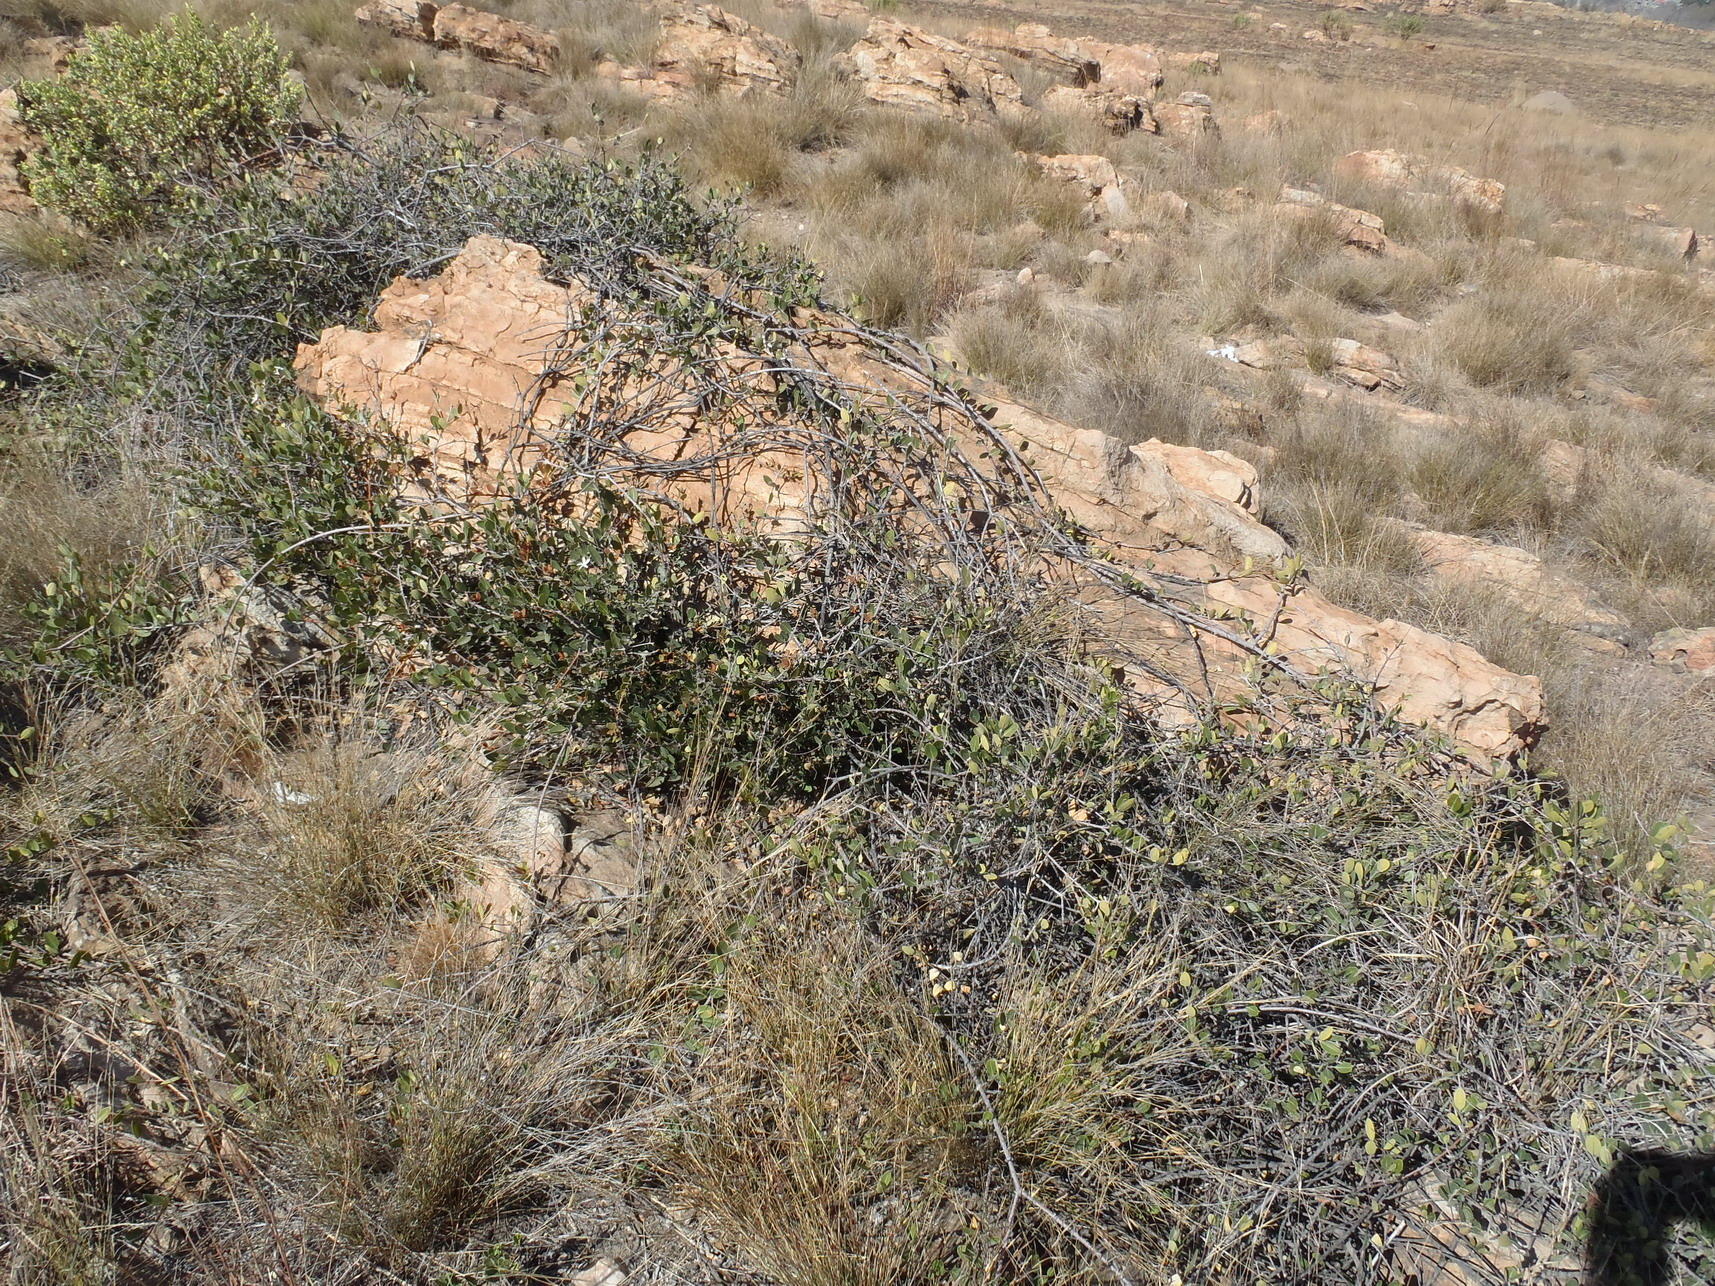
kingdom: Plantae
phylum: Tracheophyta
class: Magnoliopsida
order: Gentianales
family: Apocynaceae
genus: Ancylobothrys
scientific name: Ancylobothrys capensis
